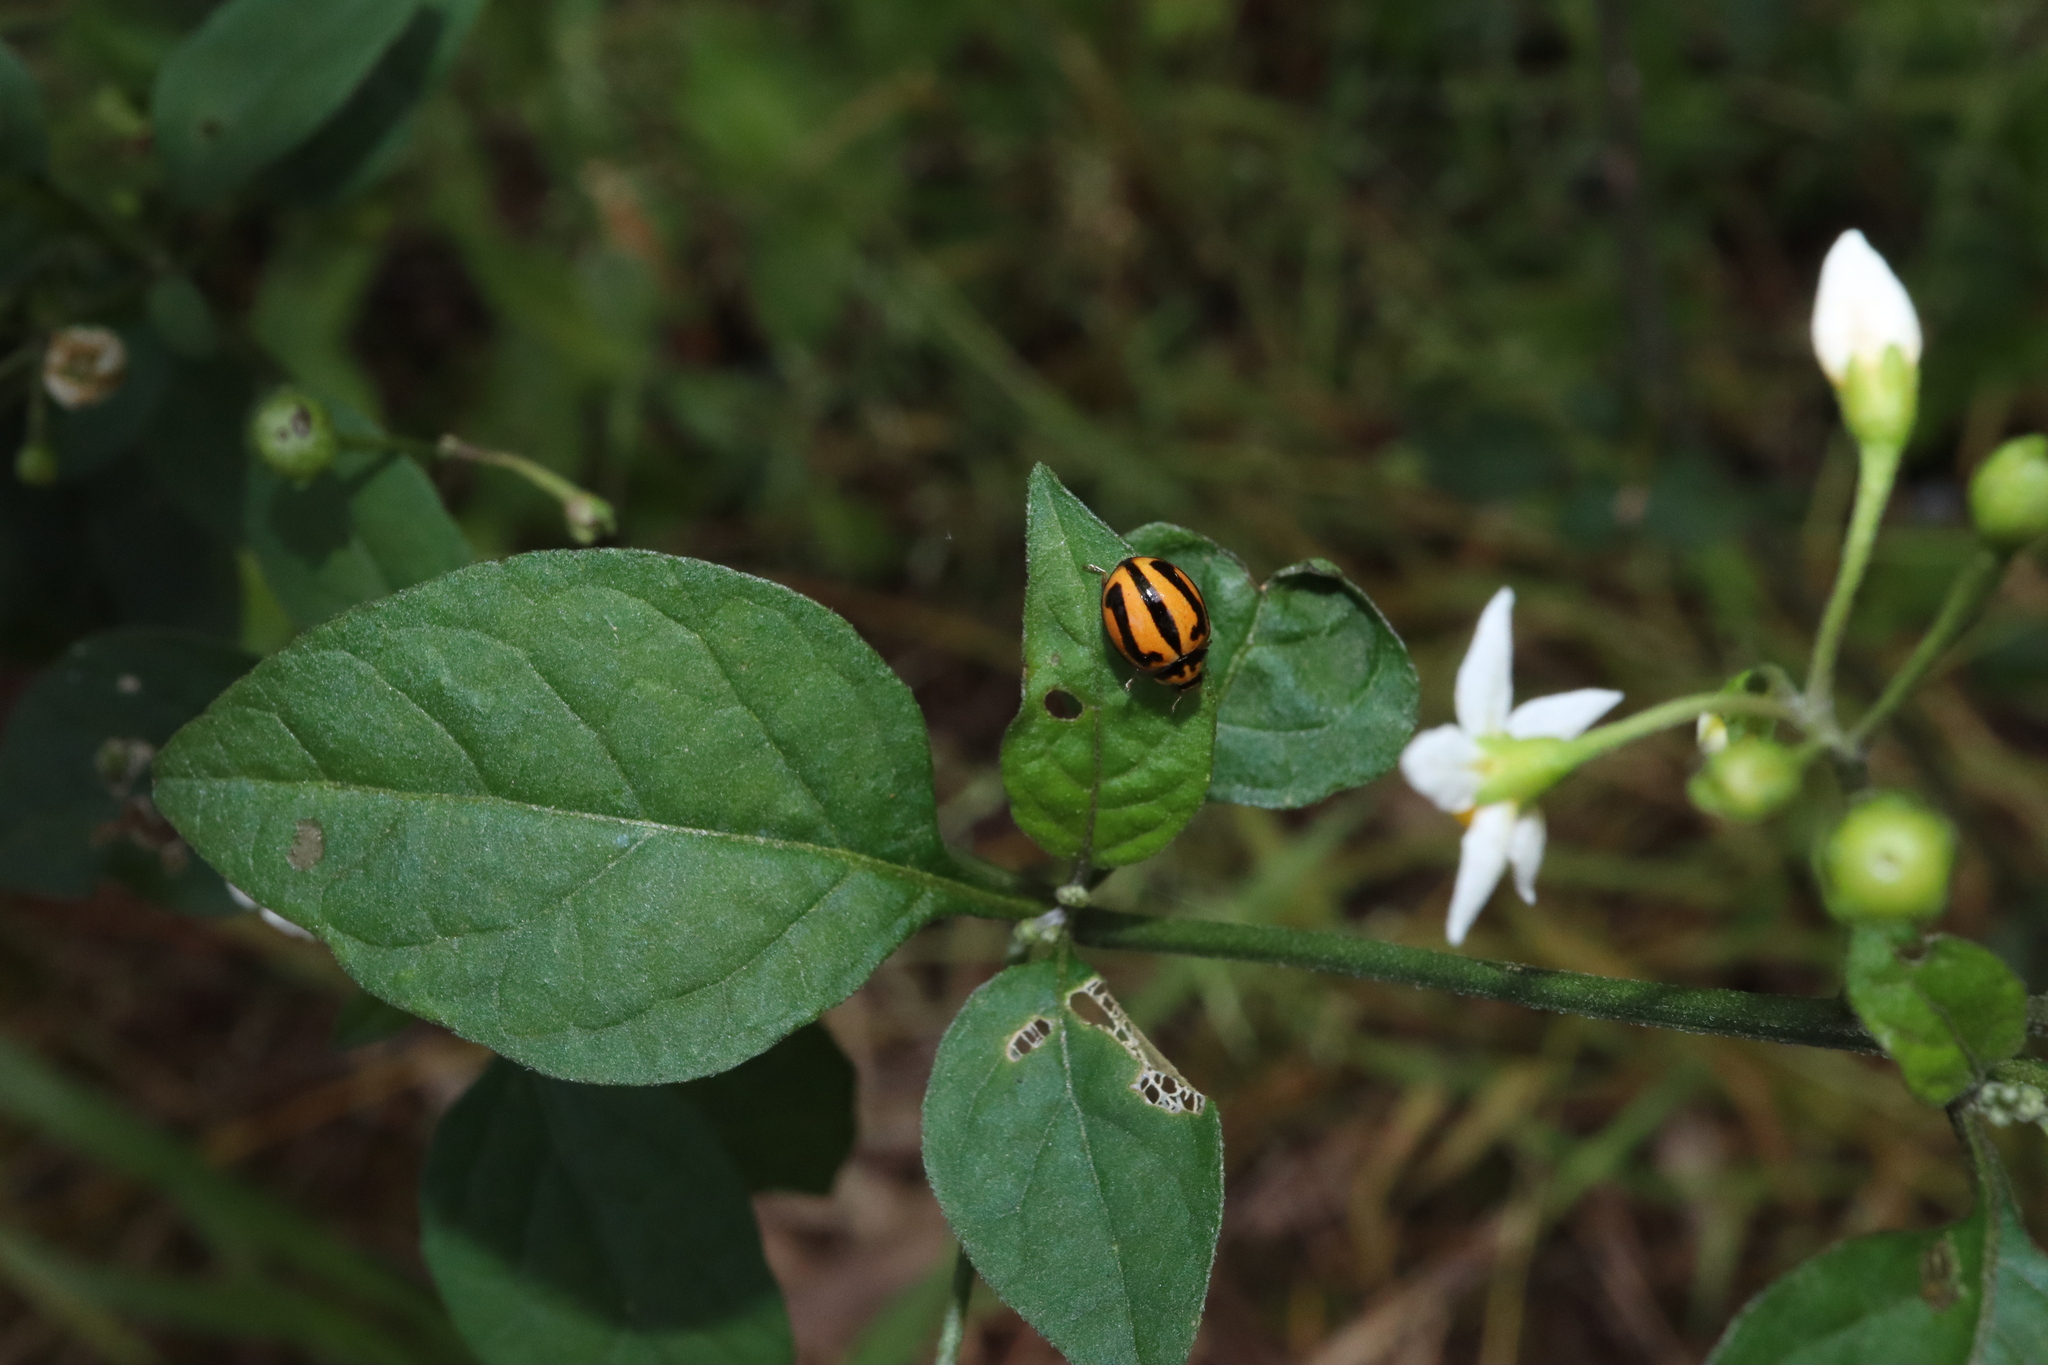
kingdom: Animalia
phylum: Arthropoda
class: Insecta
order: Coleoptera
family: Coccinellidae
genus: Micraspis
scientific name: Micraspis frenata
